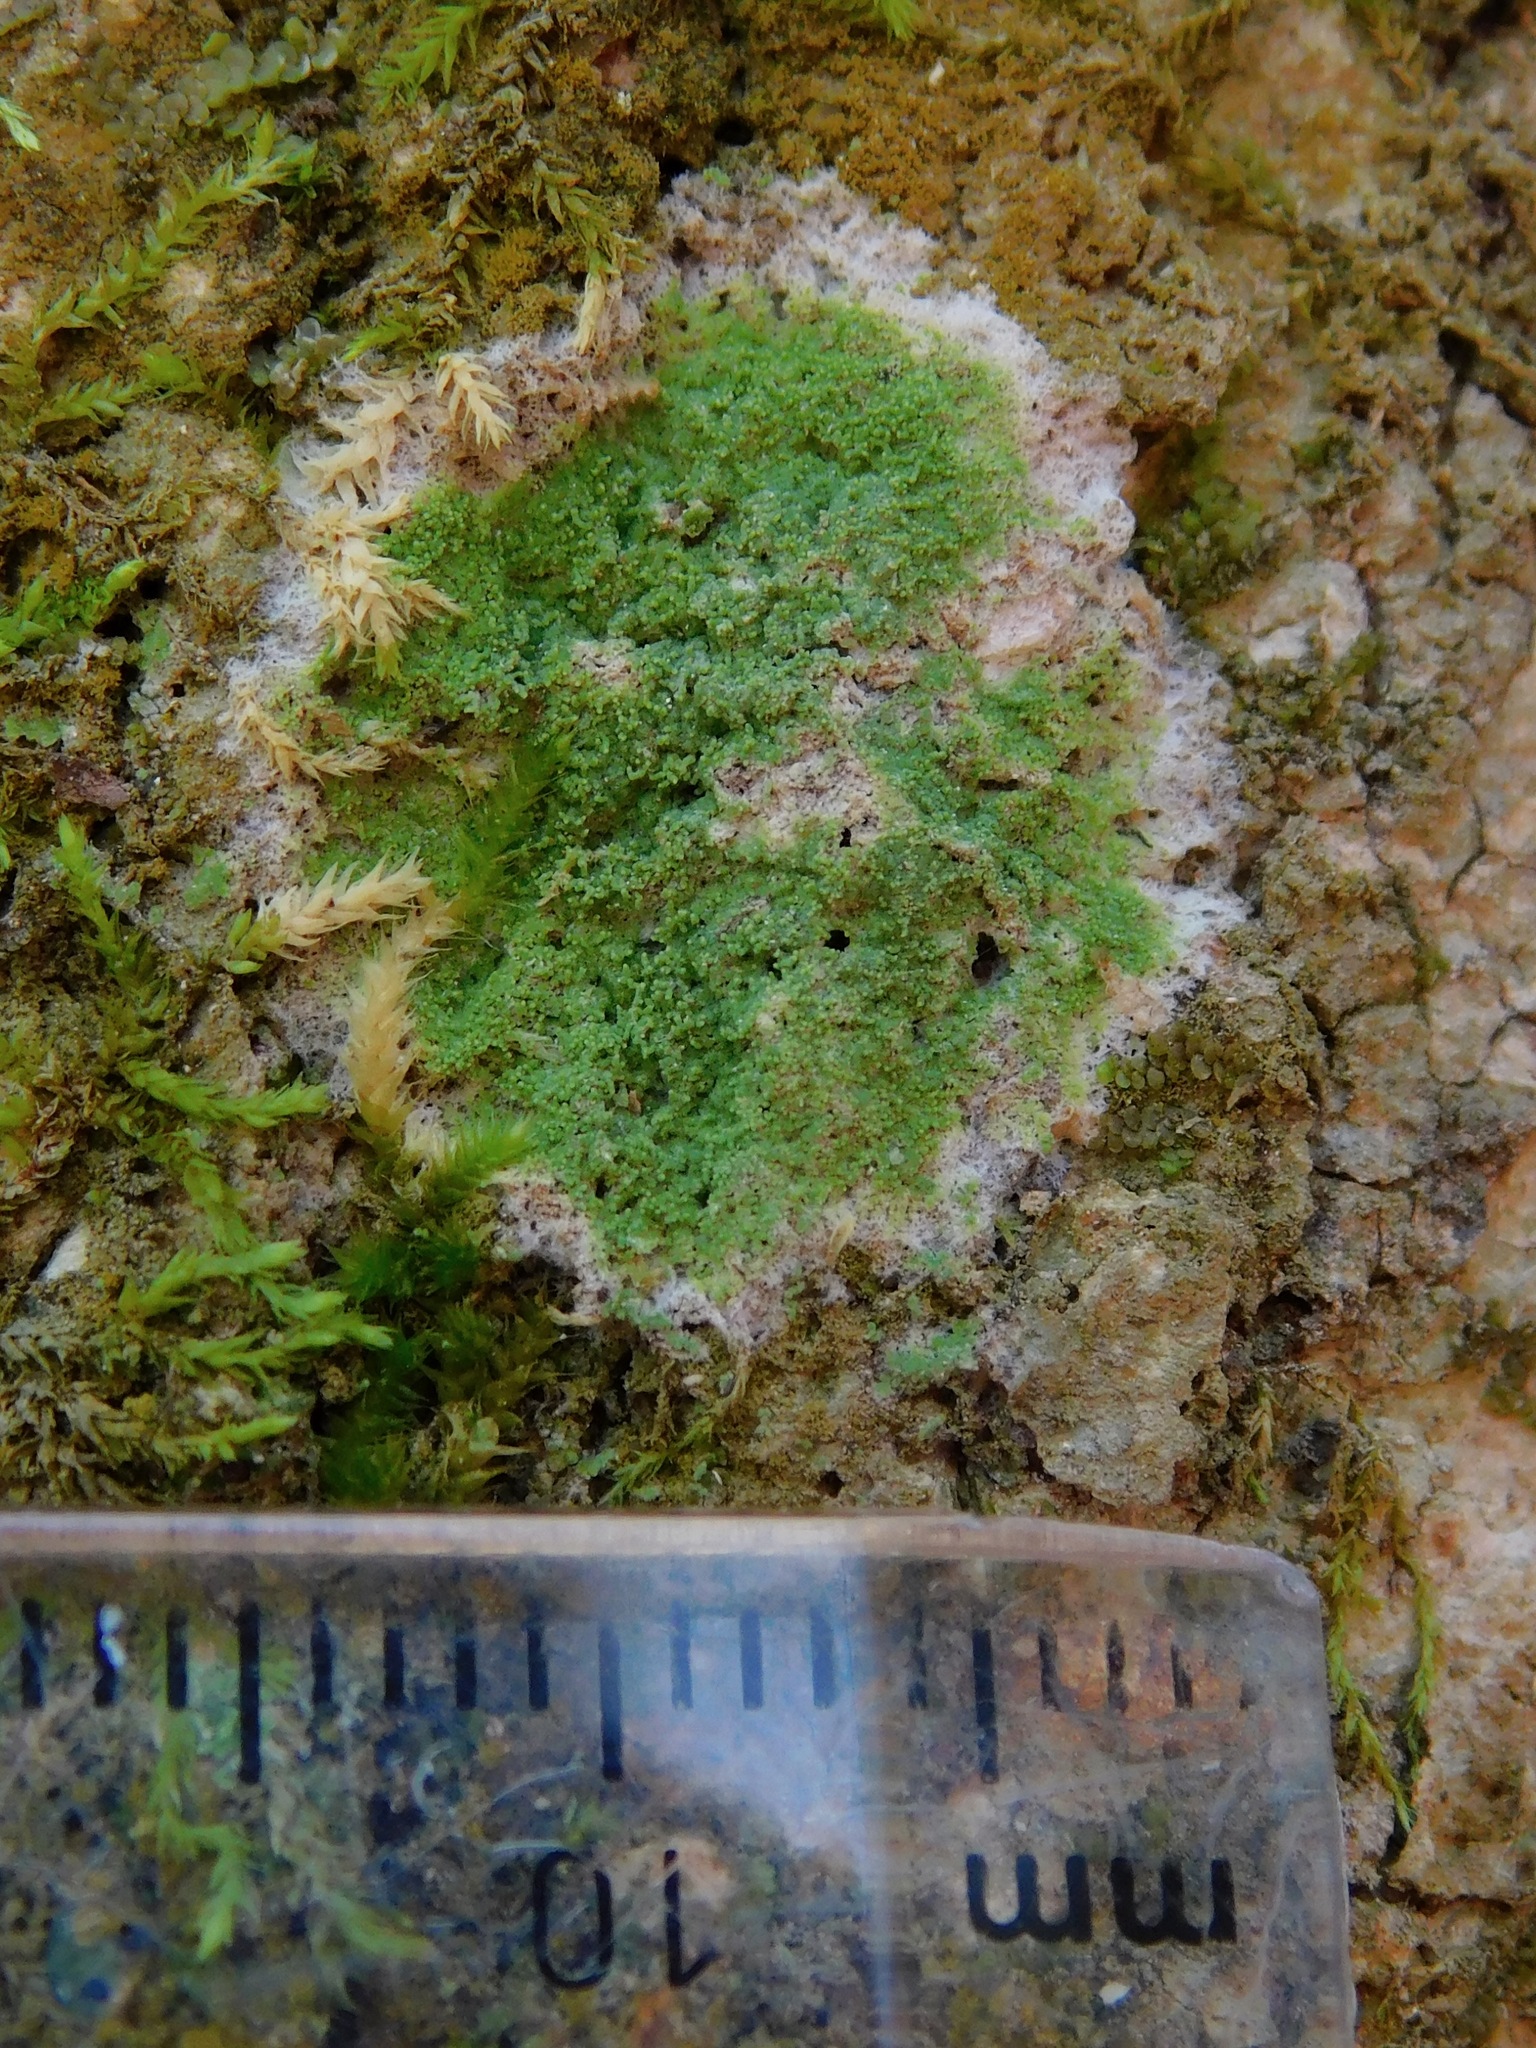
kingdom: Fungi
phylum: Ascomycota
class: Lecanoromycetes
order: Lecanorales
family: Ramalinaceae
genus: Phyllopsora
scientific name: Phyllopsora corallina
